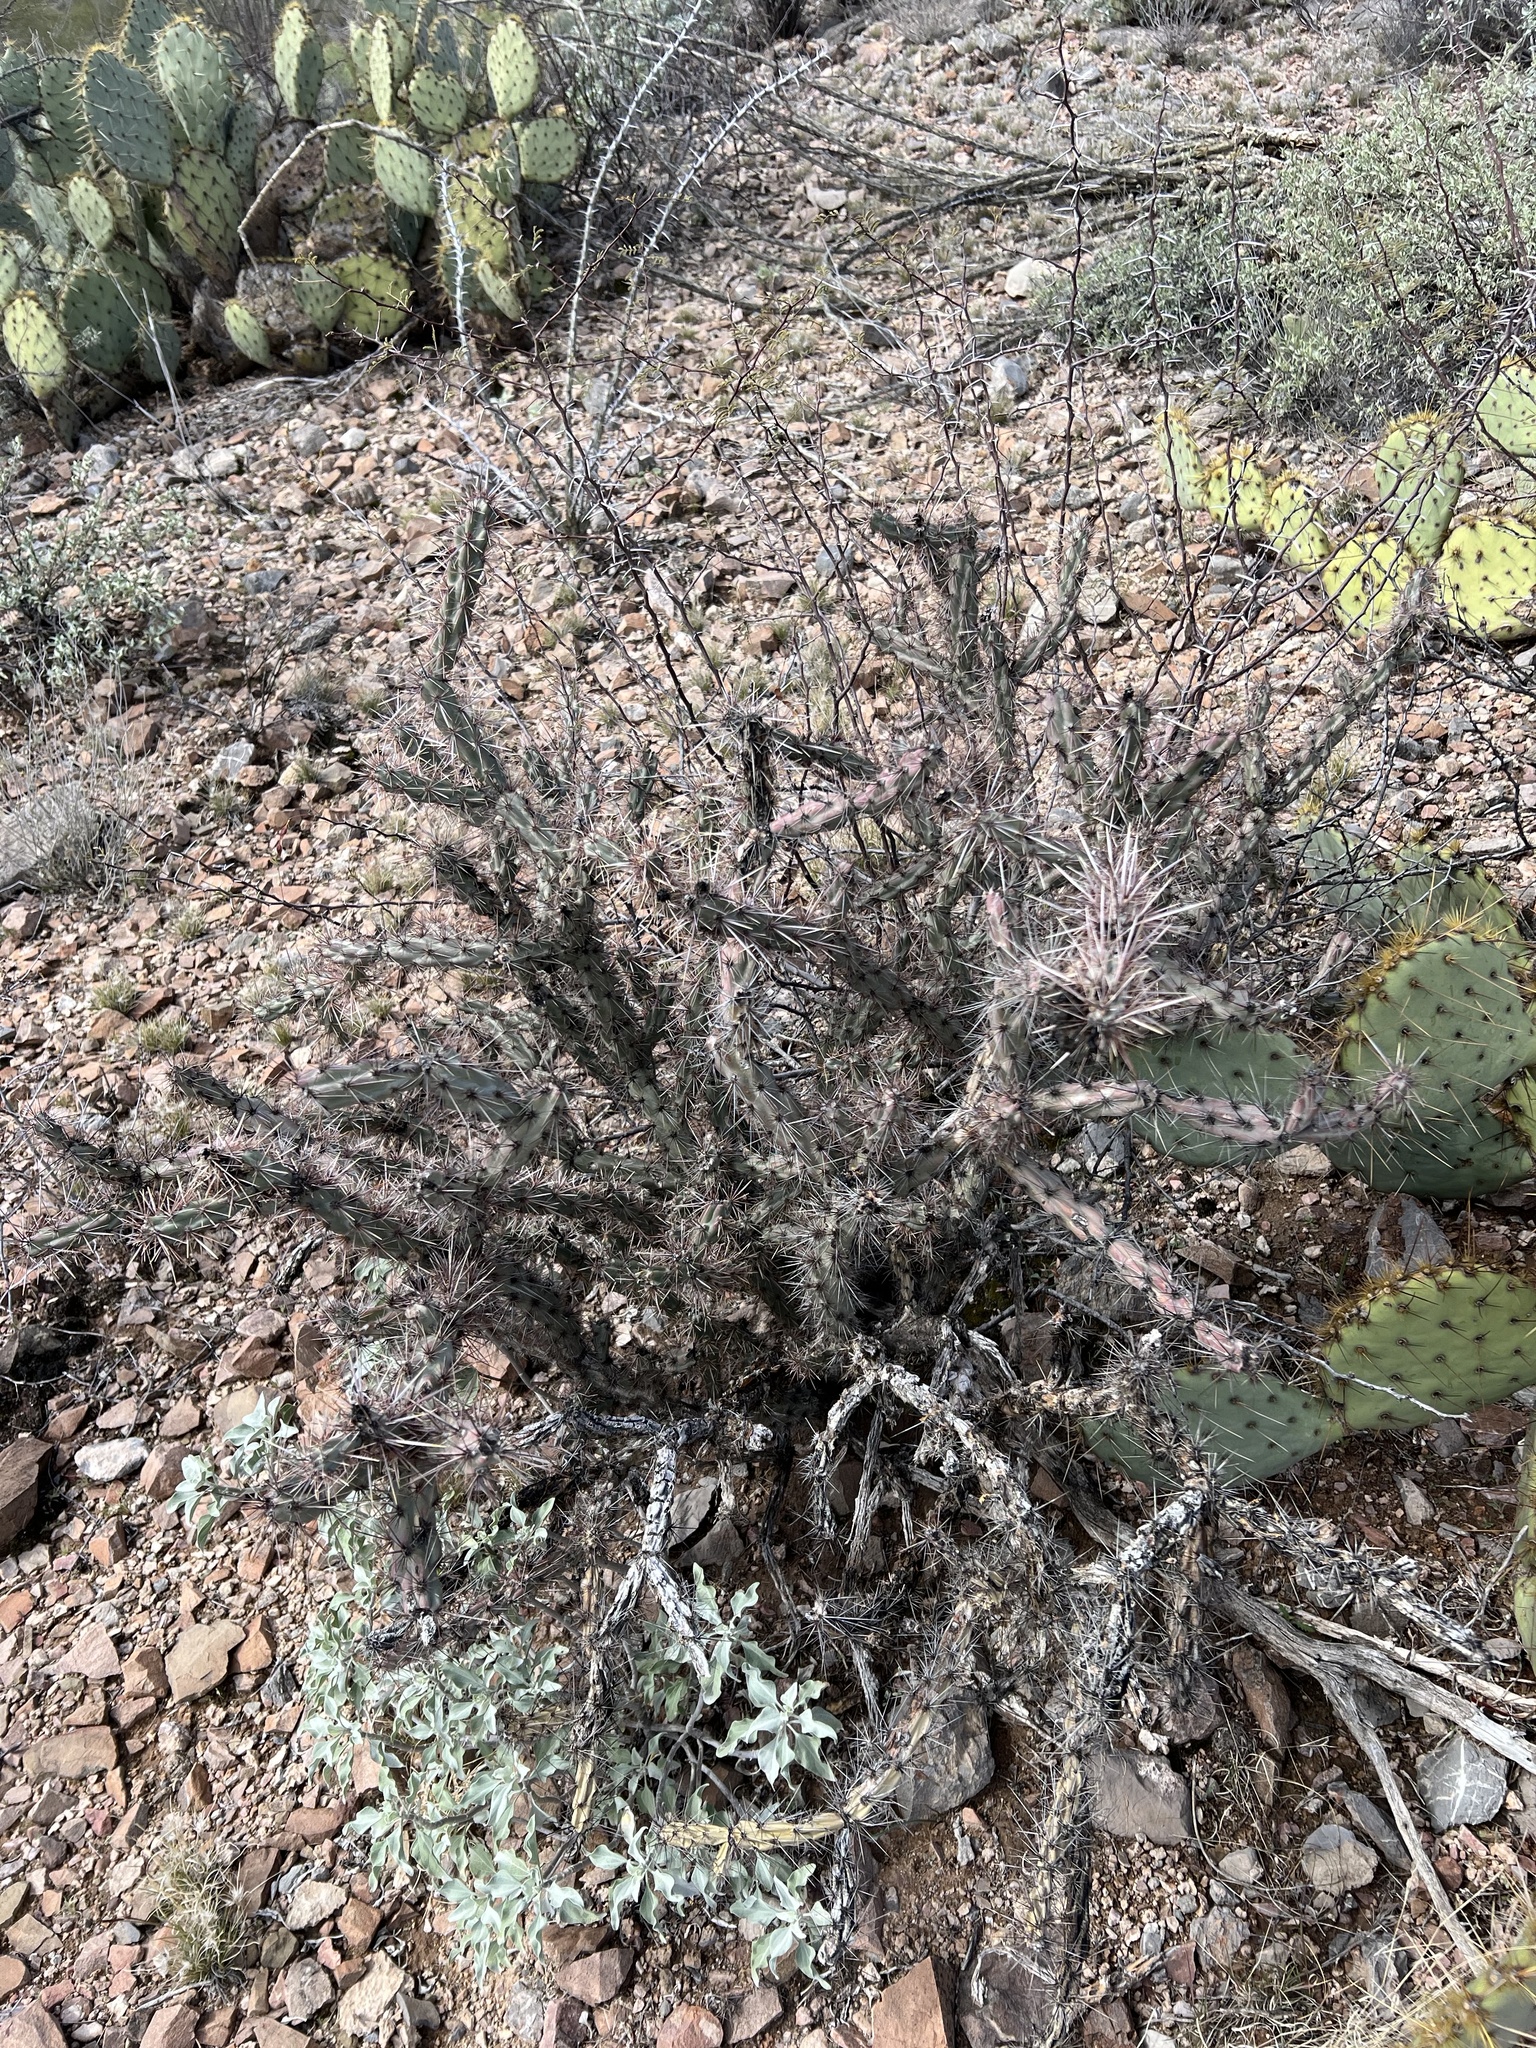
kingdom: Plantae
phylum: Tracheophyta
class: Magnoliopsida
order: Caryophyllales
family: Cactaceae
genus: Cylindropuntia
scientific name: Cylindropuntia acanthocarpa
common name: Buckhorn cholla
